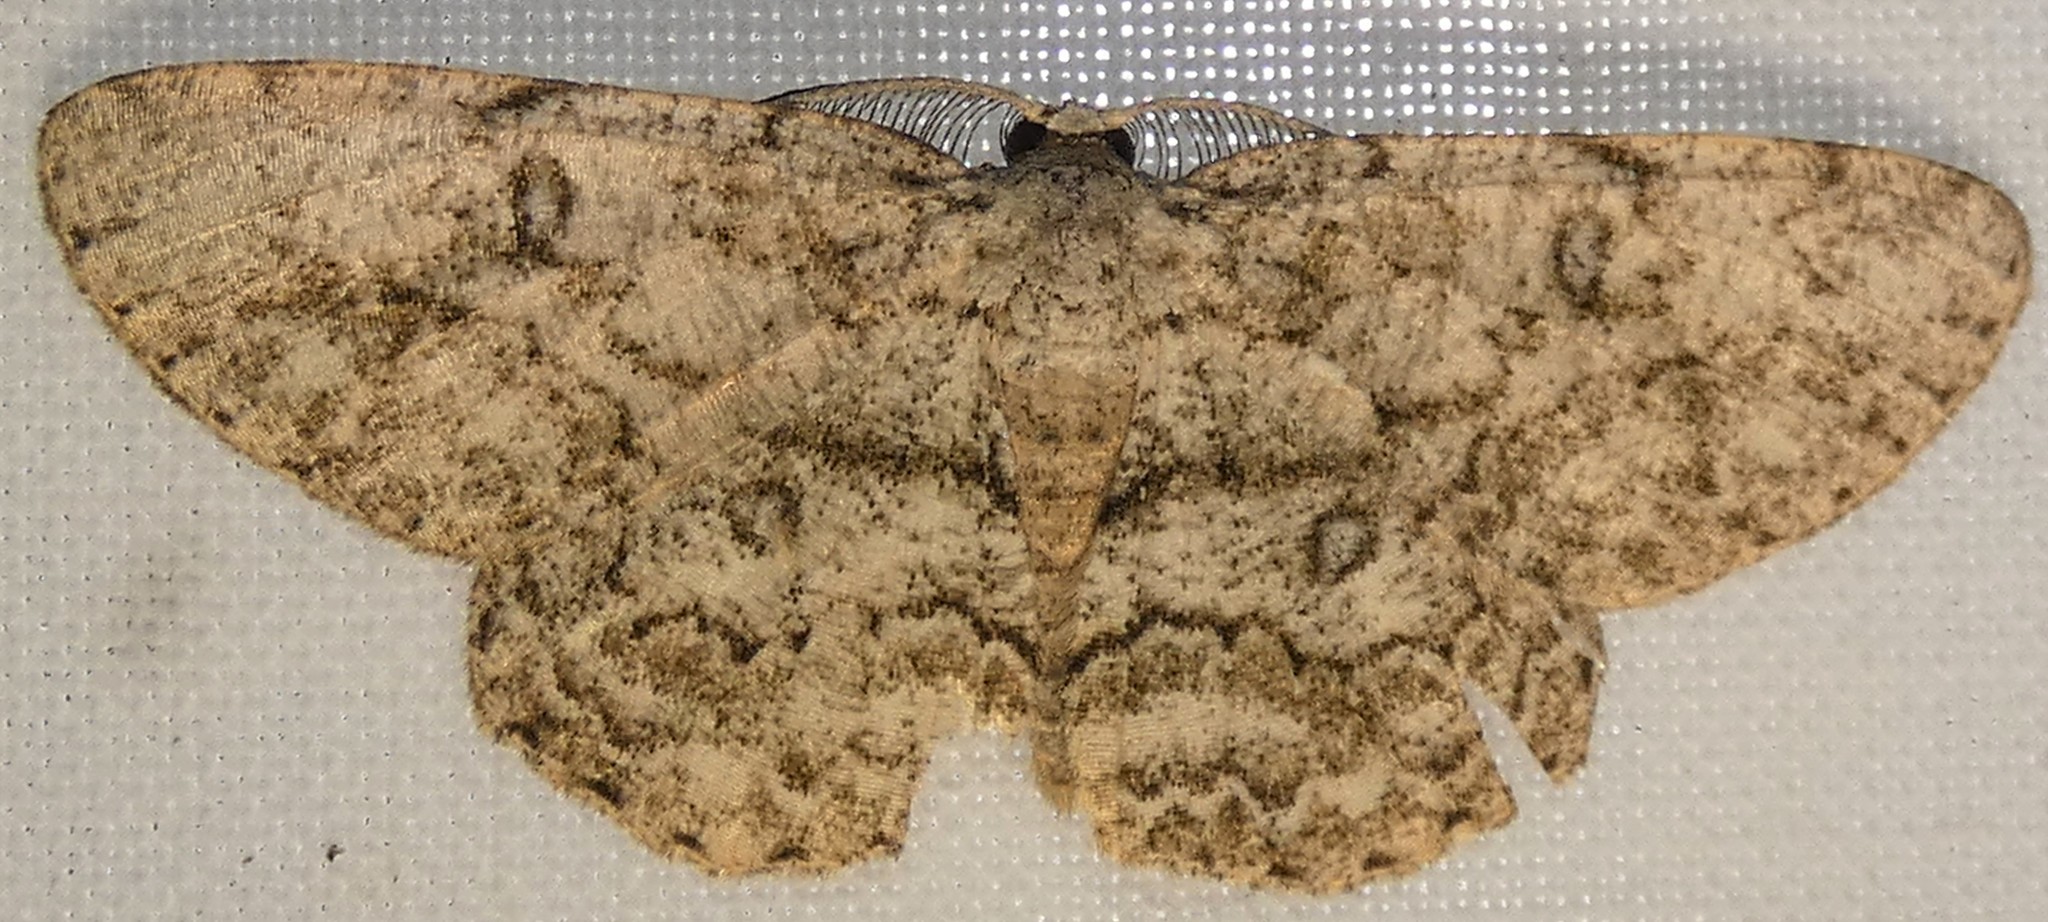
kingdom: Animalia
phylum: Arthropoda
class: Insecta
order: Lepidoptera
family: Geometridae
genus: Hypomecis
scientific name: Hypomecis umbrosaria
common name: Umber moth
